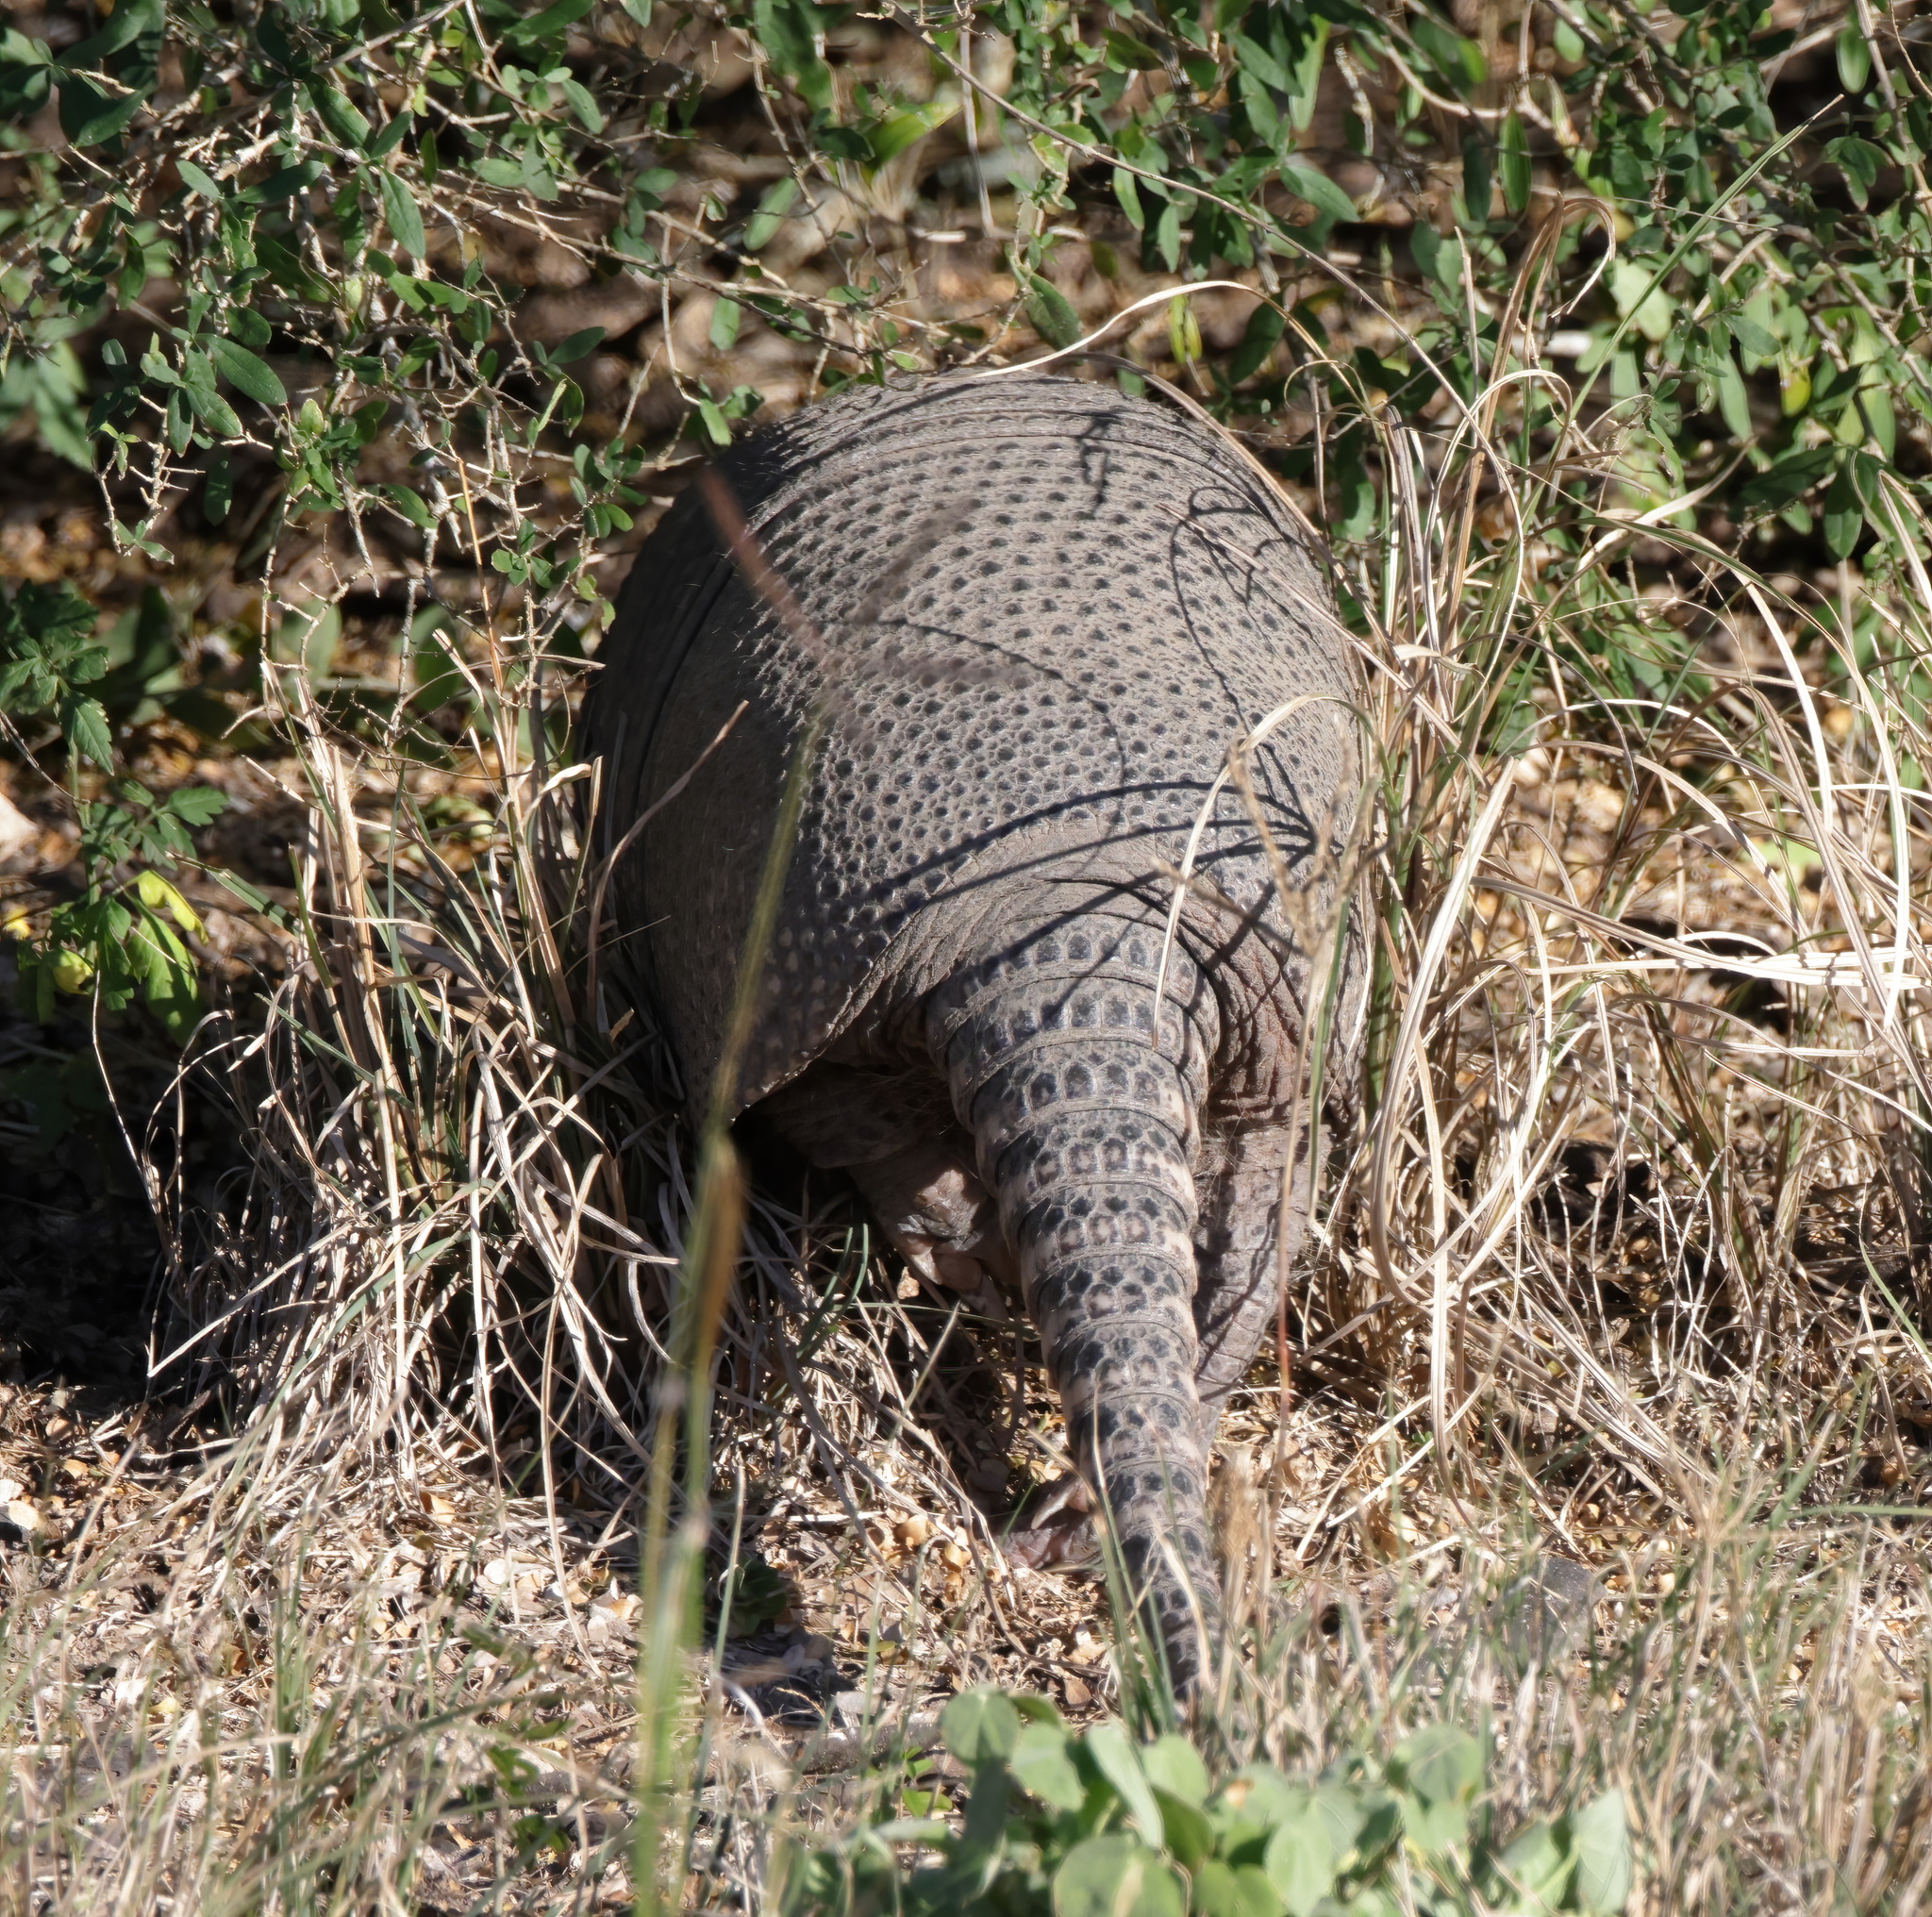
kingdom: Animalia
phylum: Chordata
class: Mammalia
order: Cingulata
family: Dasypodidae
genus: Dasypus
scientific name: Dasypus novemcinctus
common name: Nine-banded armadillo
